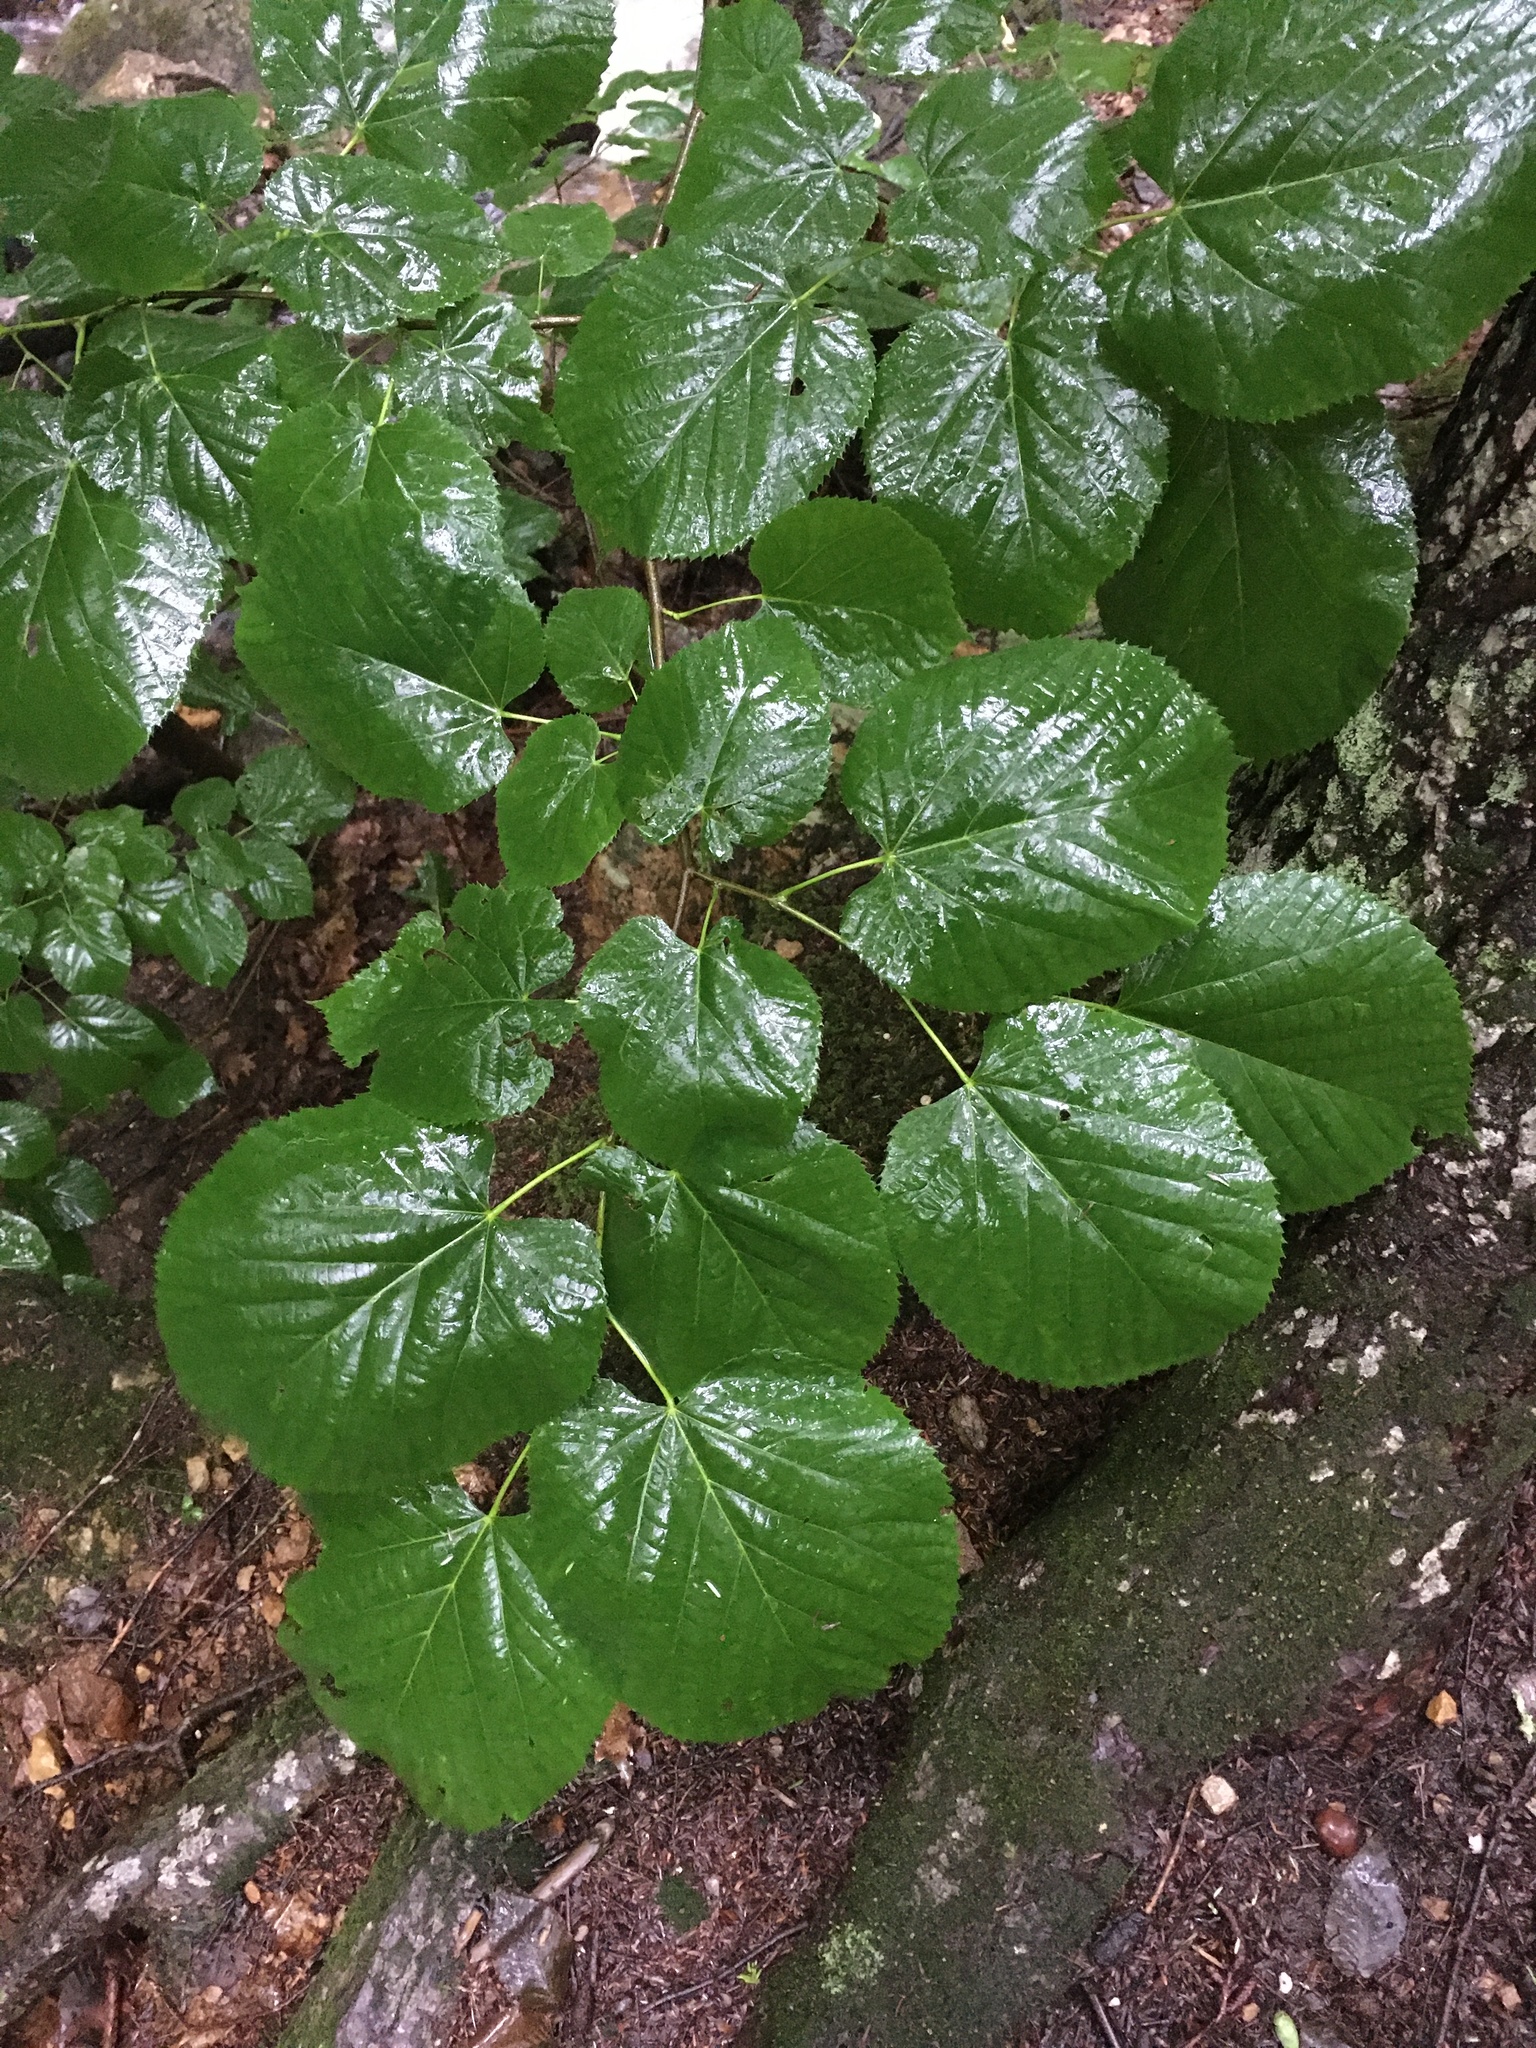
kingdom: Plantae
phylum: Tracheophyta
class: Magnoliopsida
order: Malvales
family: Malvaceae
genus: Tilia
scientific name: Tilia americana
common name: Basswood
